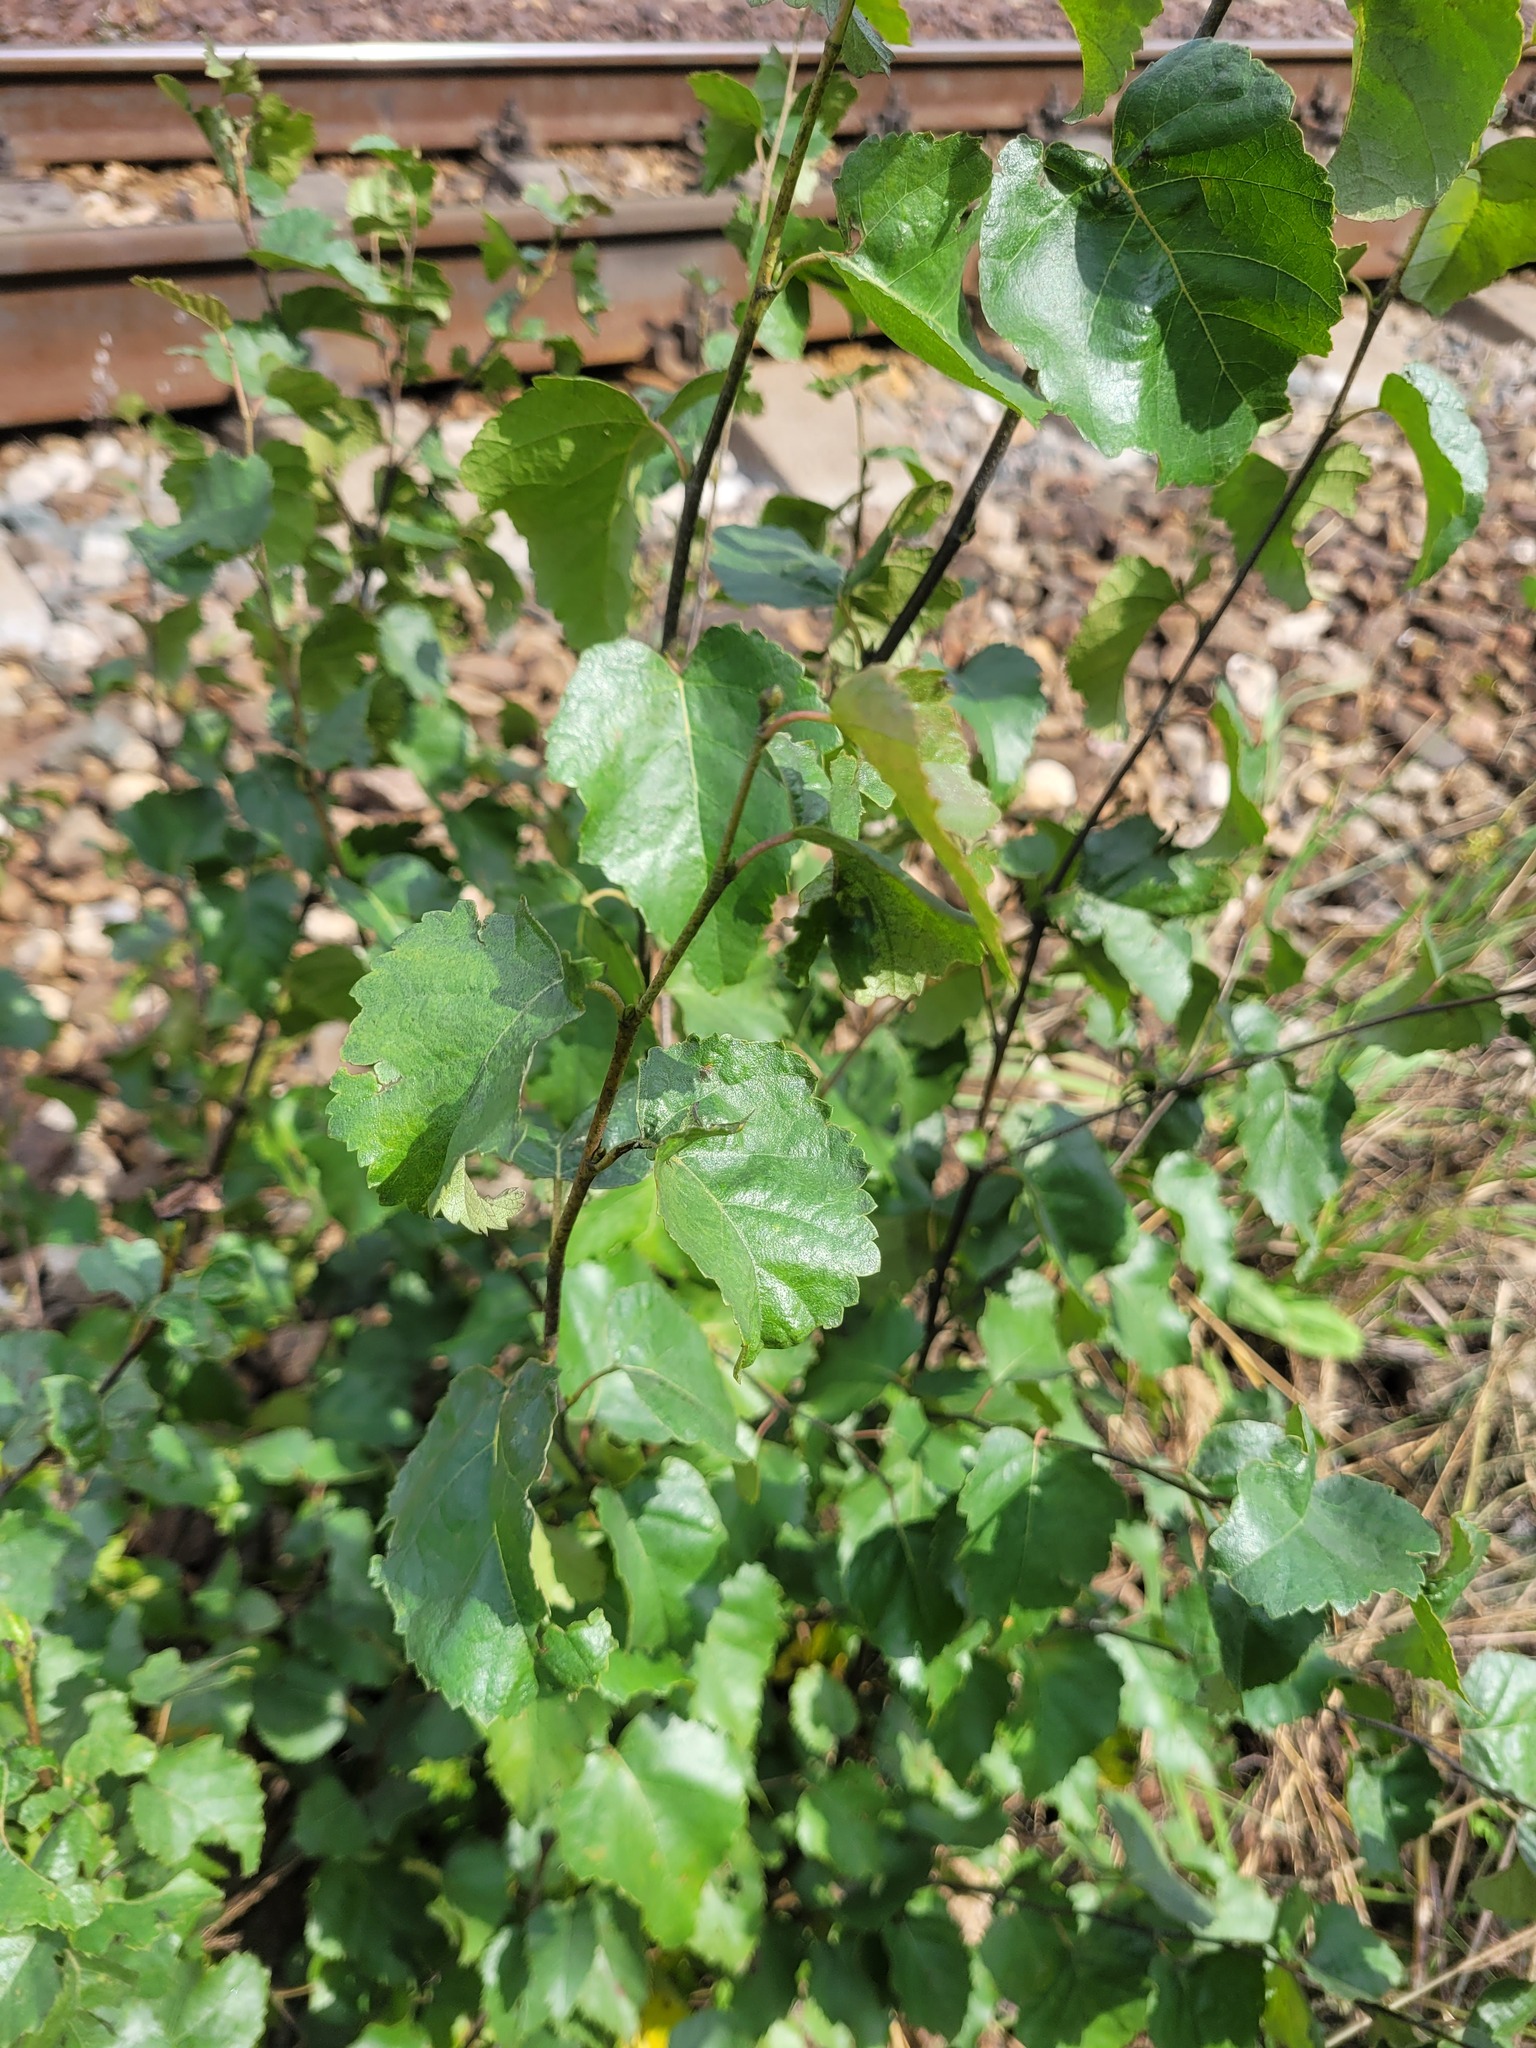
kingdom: Plantae
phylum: Tracheophyta
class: Magnoliopsida
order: Fagales
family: Betulaceae
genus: Betula
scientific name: Betula pendula
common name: Silver birch
